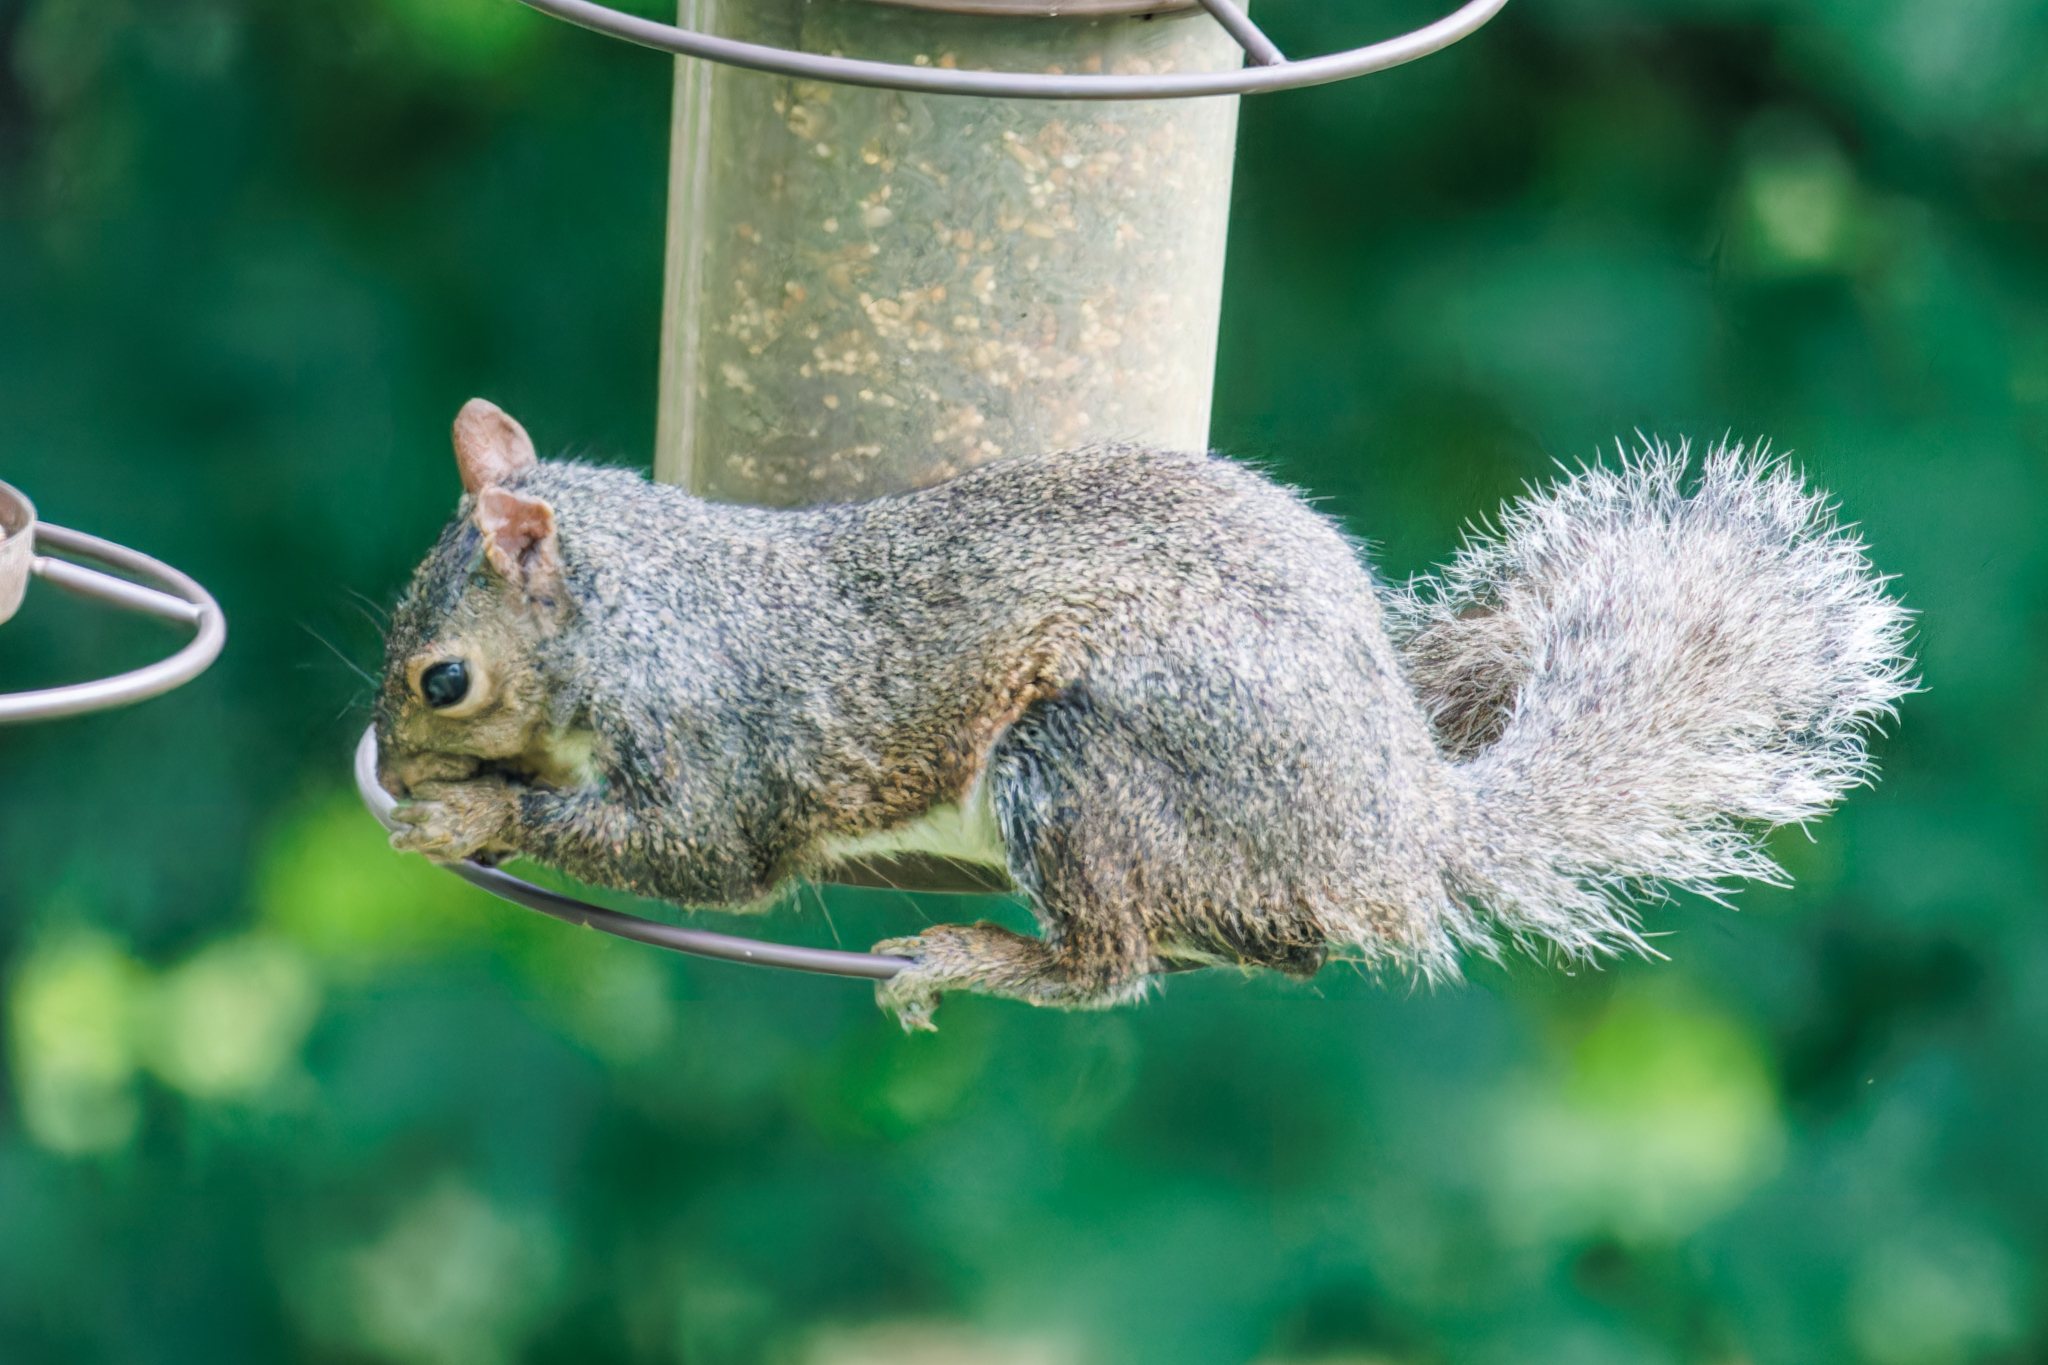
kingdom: Animalia
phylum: Chordata
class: Mammalia
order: Rodentia
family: Sciuridae
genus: Sciurus
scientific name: Sciurus carolinensis
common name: Eastern gray squirrel
